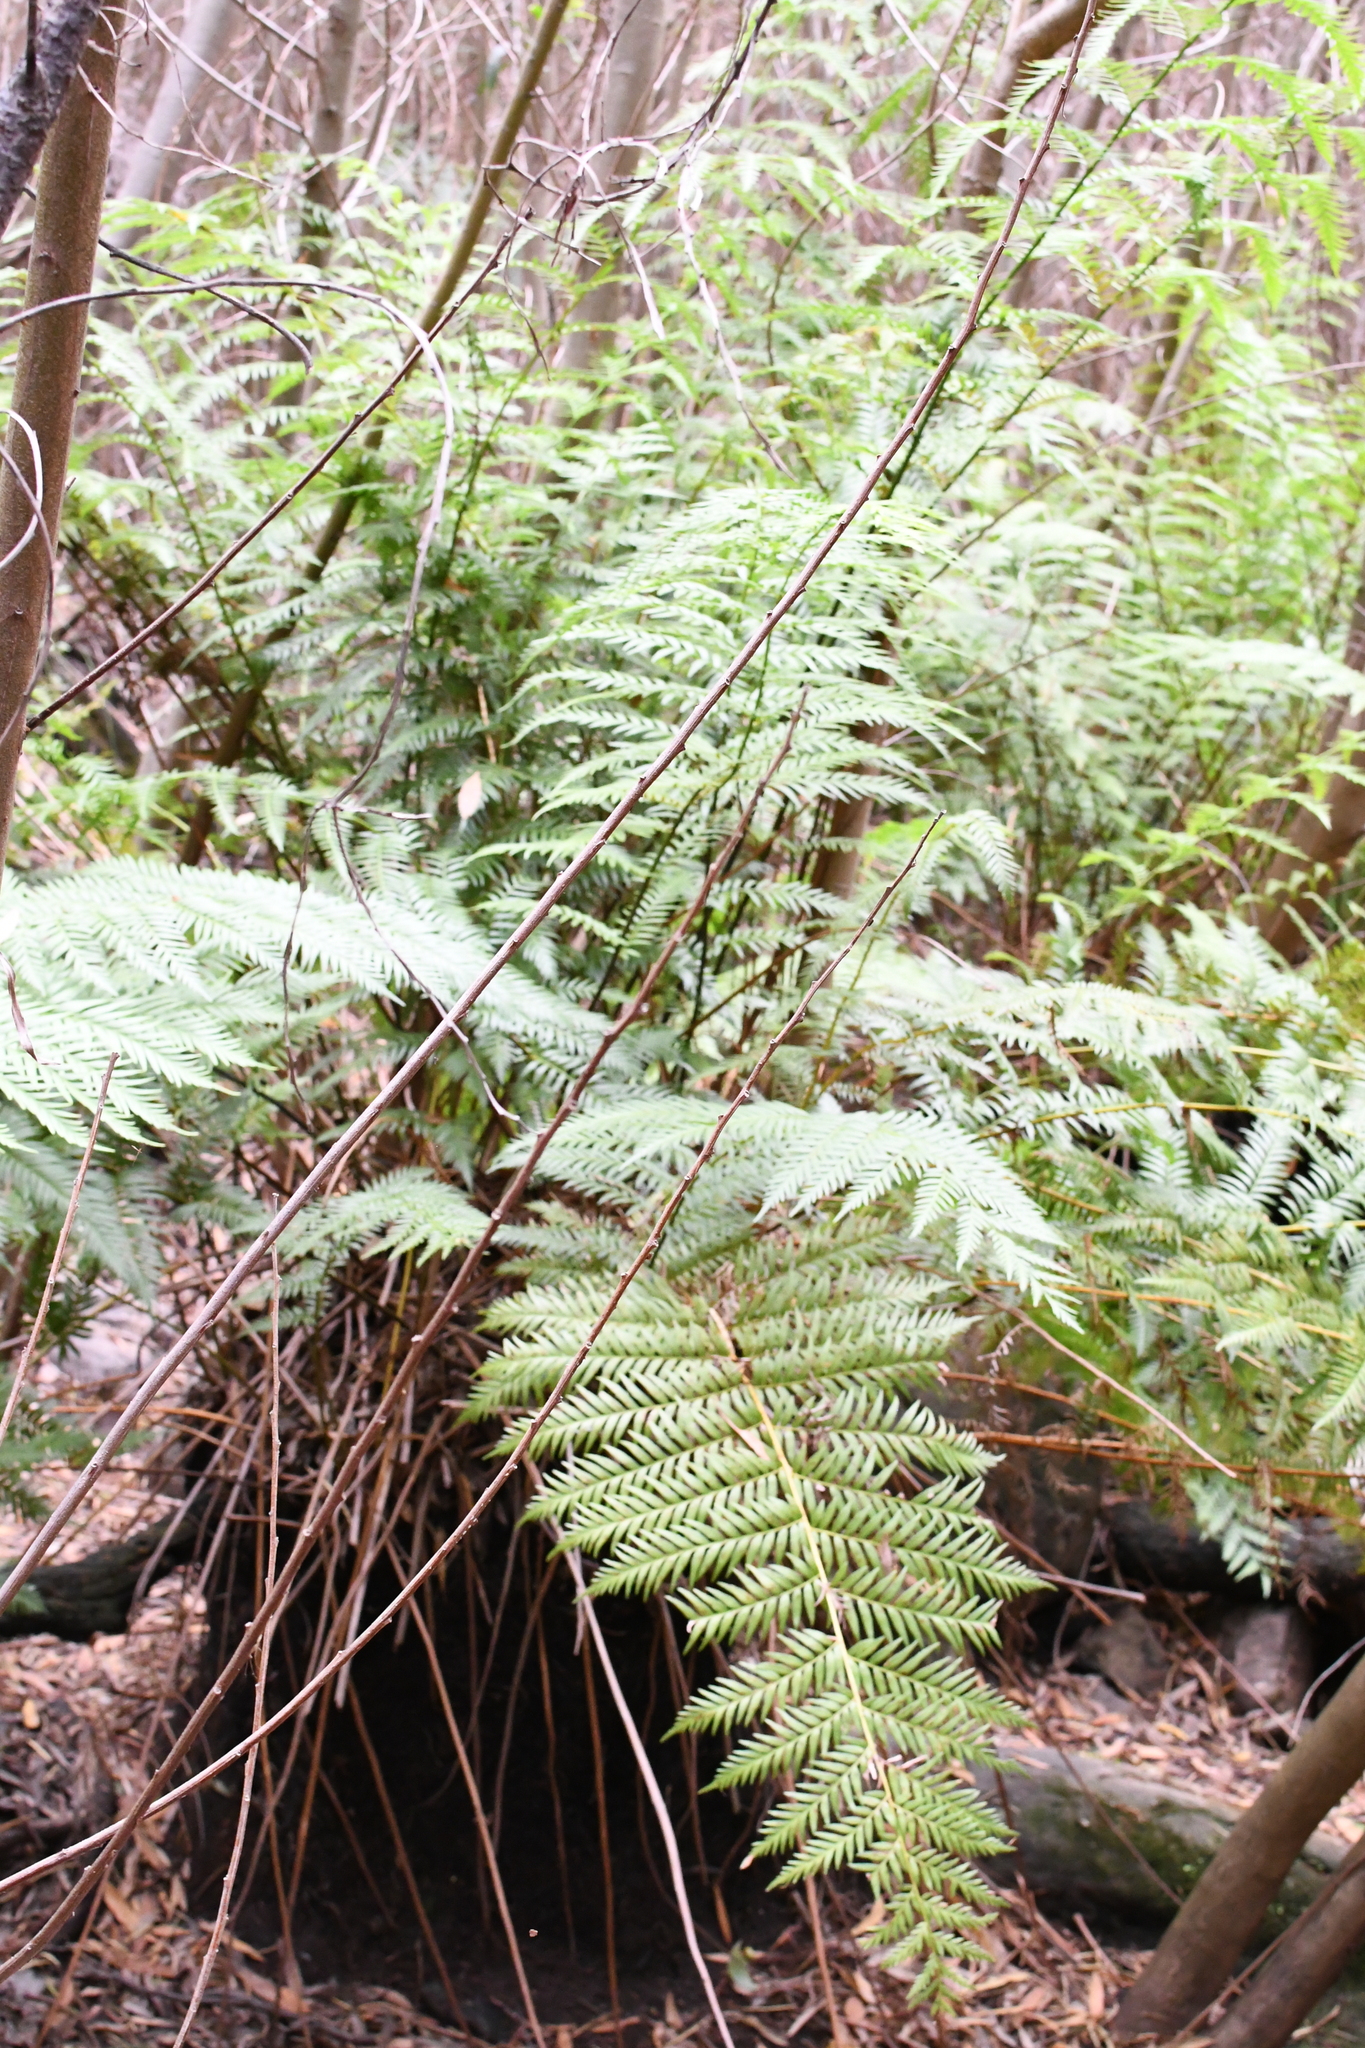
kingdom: Plantae
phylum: Tracheophyta
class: Polypodiopsida
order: Osmundales
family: Osmundaceae
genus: Todea
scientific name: Todea barbara
